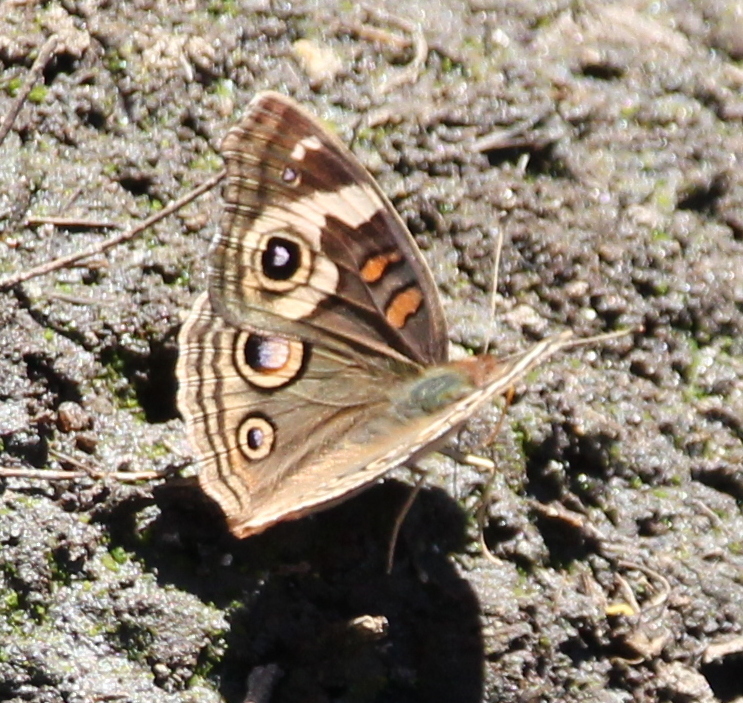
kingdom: Animalia
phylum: Arthropoda
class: Insecta
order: Lepidoptera
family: Nymphalidae
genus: Junonia
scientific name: Junonia grisea
